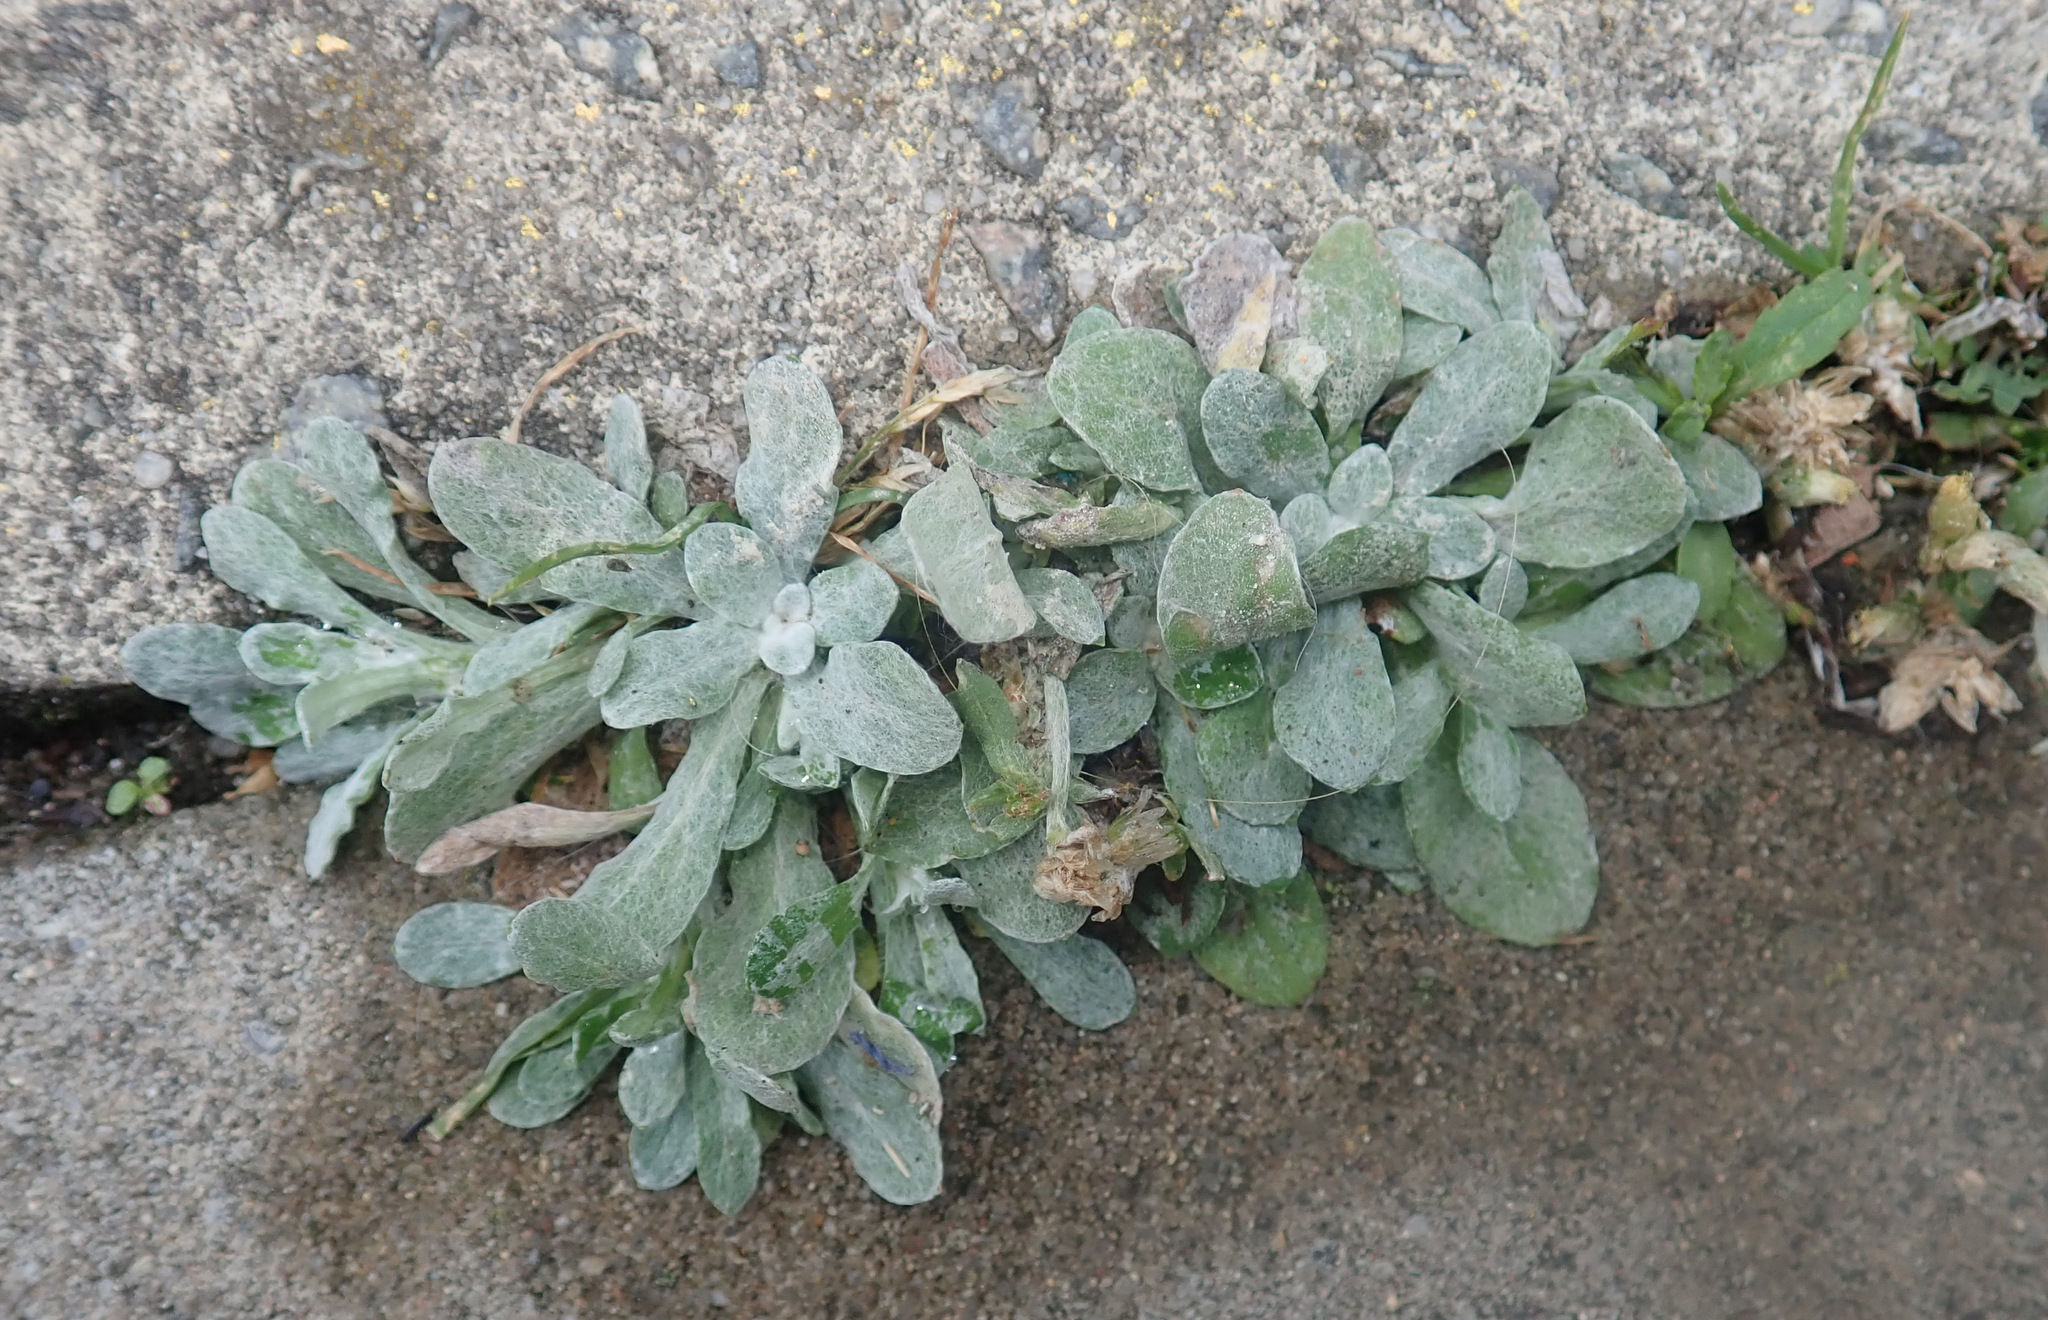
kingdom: Plantae
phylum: Tracheophyta
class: Magnoliopsida
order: Asterales
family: Asteraceae
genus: Helichrysum
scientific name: Helichrysum luteoalbum
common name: Daisy
